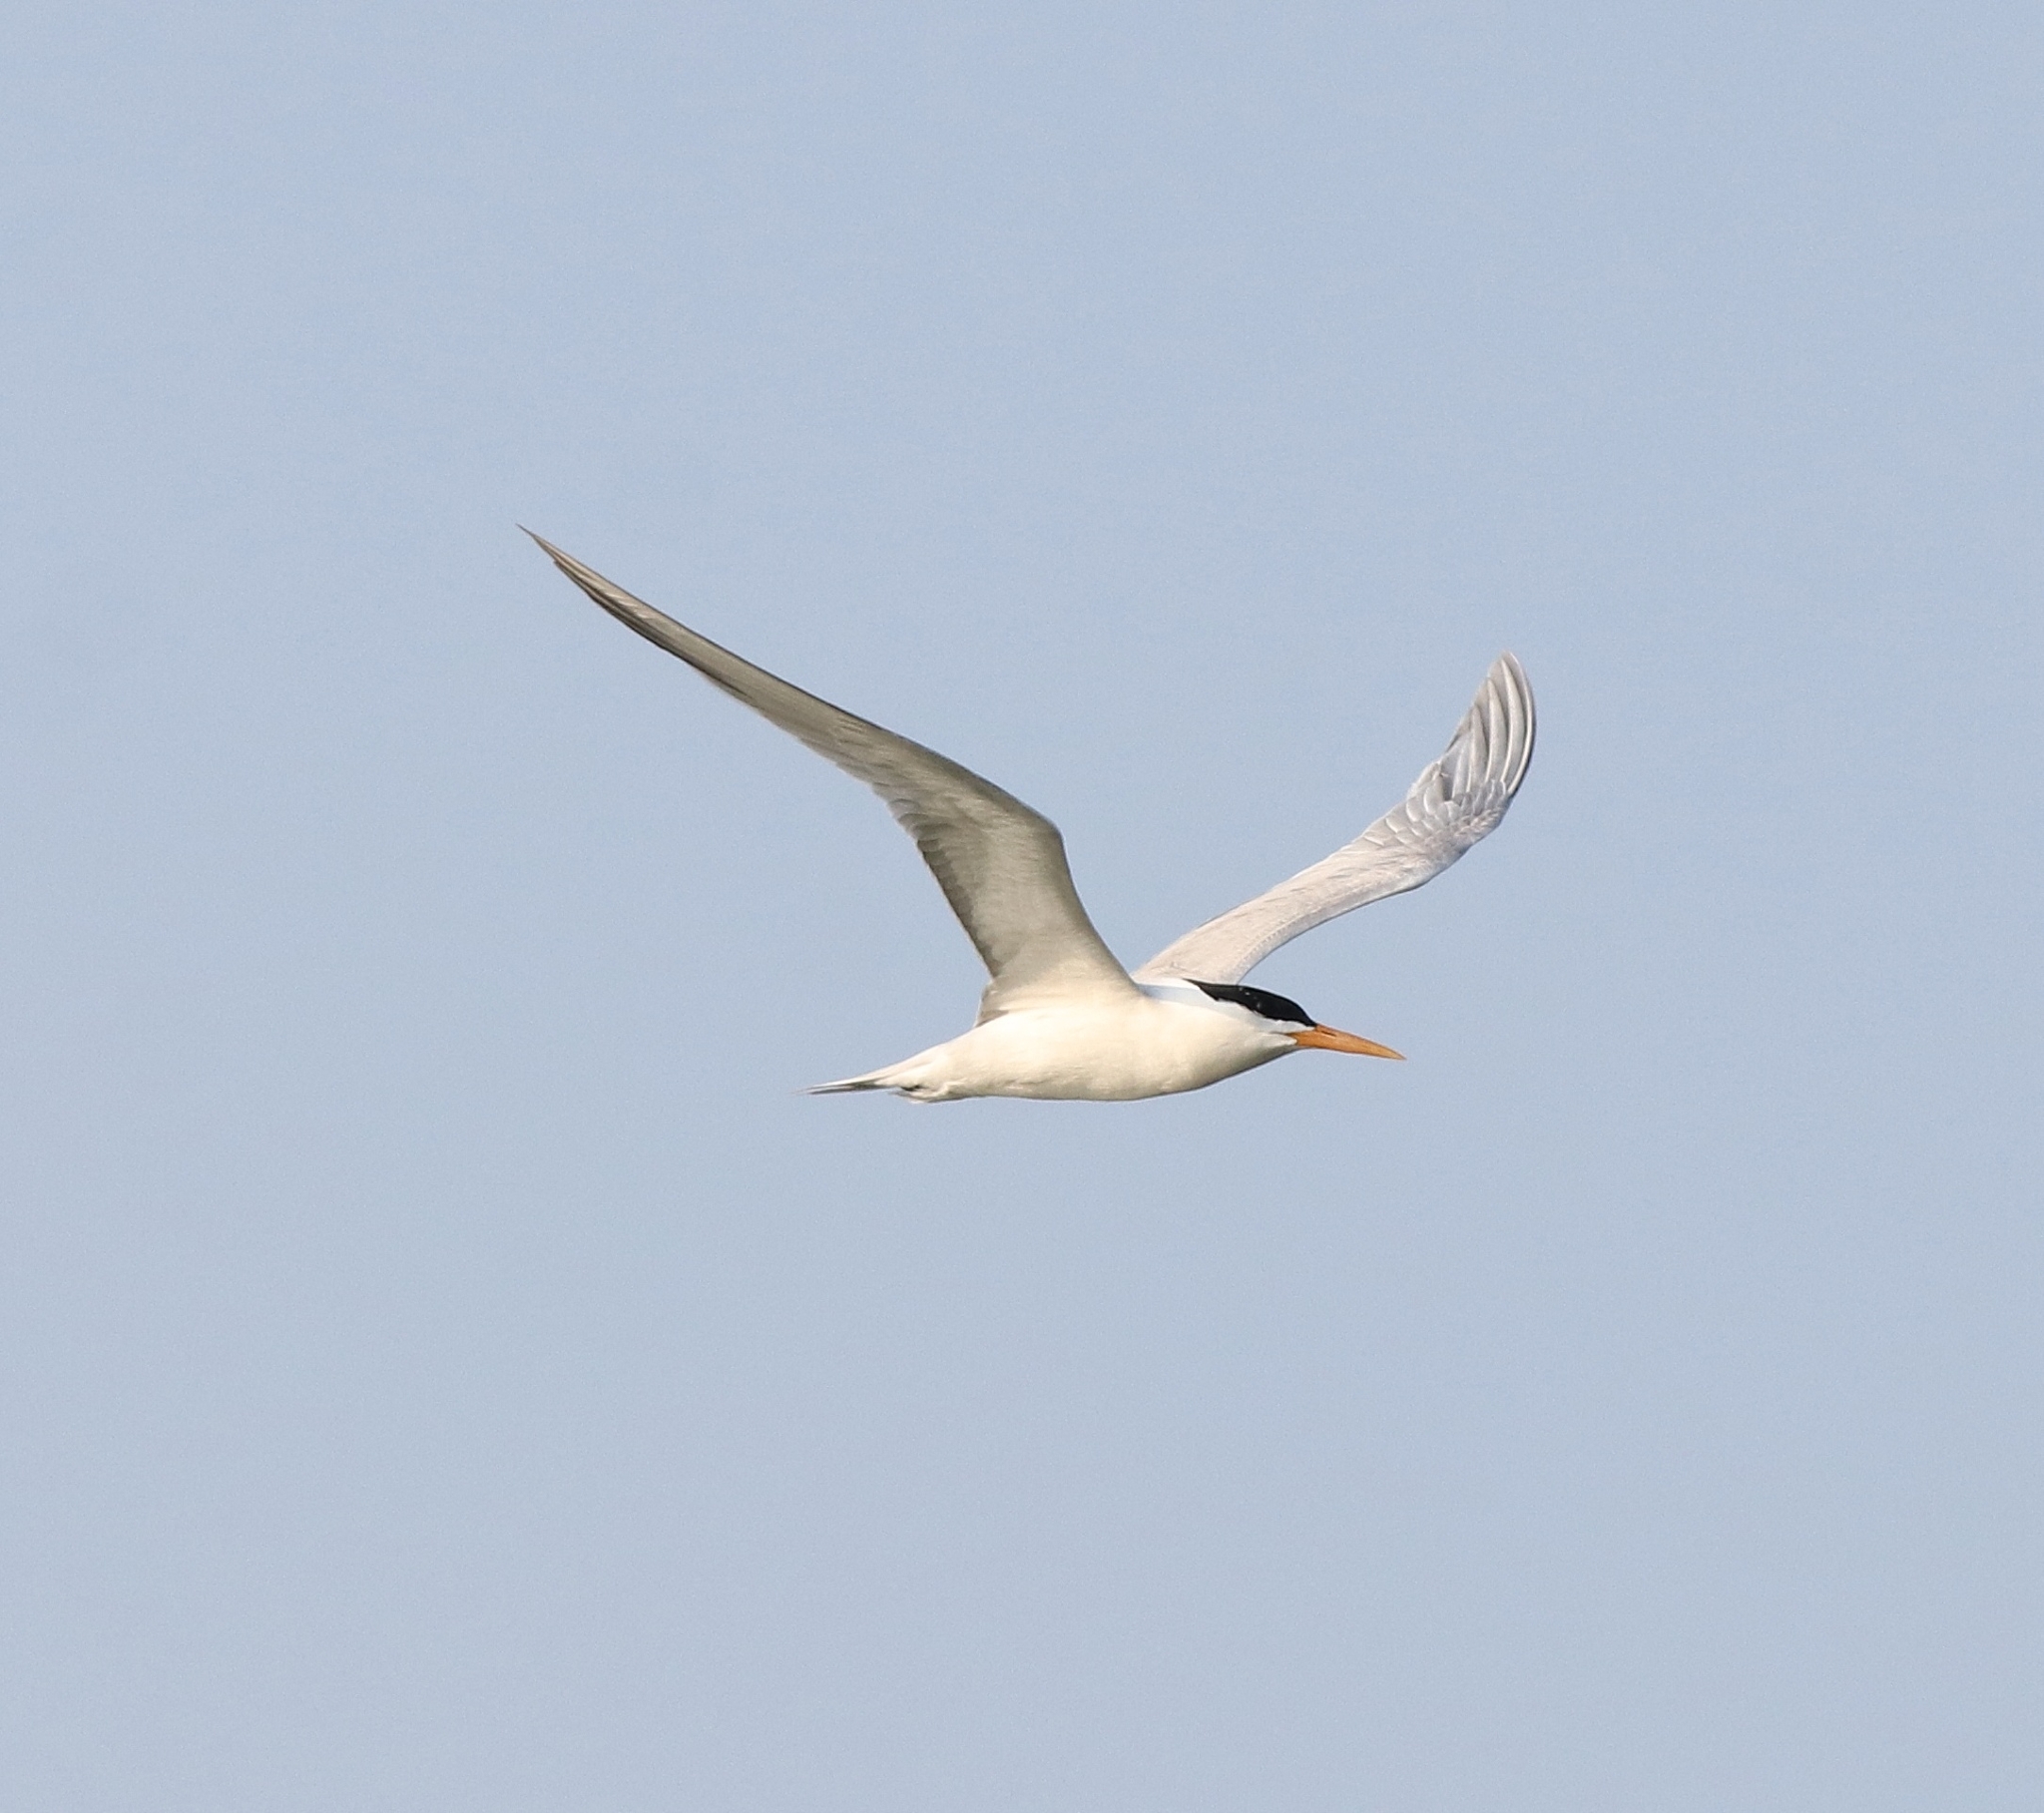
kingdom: Animalia
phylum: Chordata
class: Aves
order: Charadriiformes
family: Laridae
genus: Thalasseus
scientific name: Thalasseus bengalensis
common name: Lesser crested tern
